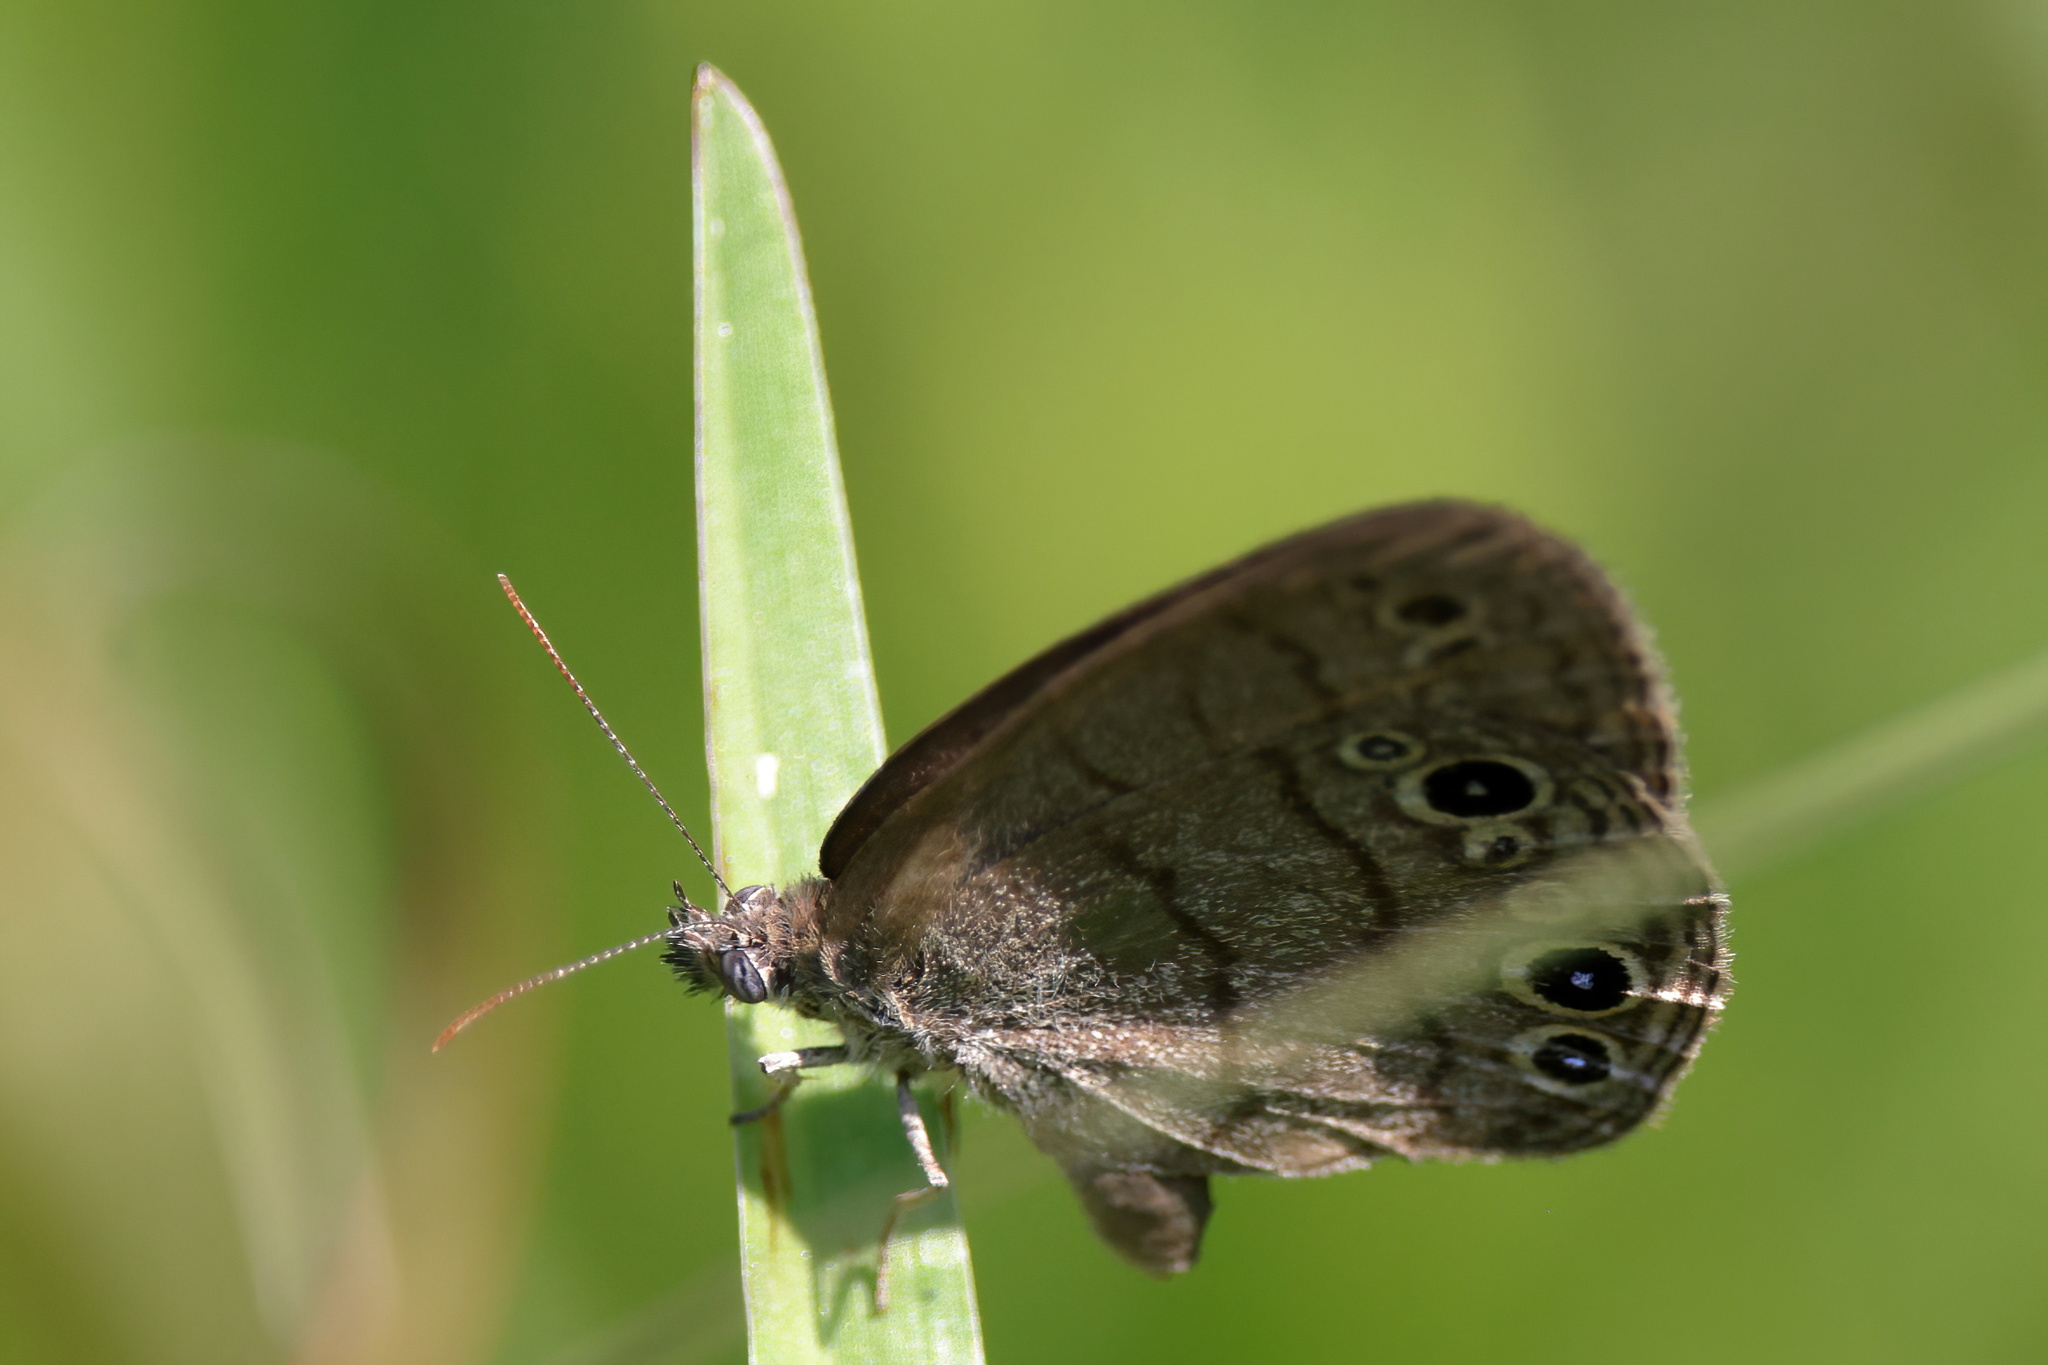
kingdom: Animalia
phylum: Arthropoda
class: Insecta
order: Lepidoptera
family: Nymphalidae
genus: Hermeuptychia
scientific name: Hermeuptychia hermes
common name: Hermes satyr
